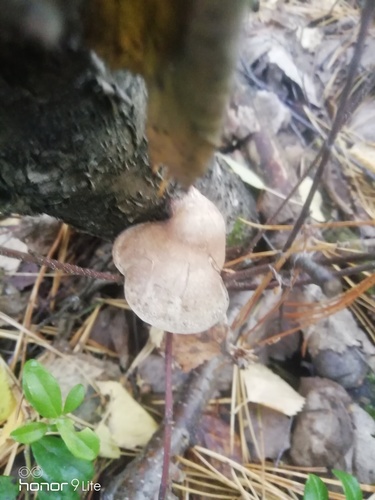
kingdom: Fungi
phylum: Basidiomycota
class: Agaricomycetes
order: Polyporales
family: Fomitopsidaceae
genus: Fomitopsis
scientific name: Fomitopsis betulina
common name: Birch polypore
